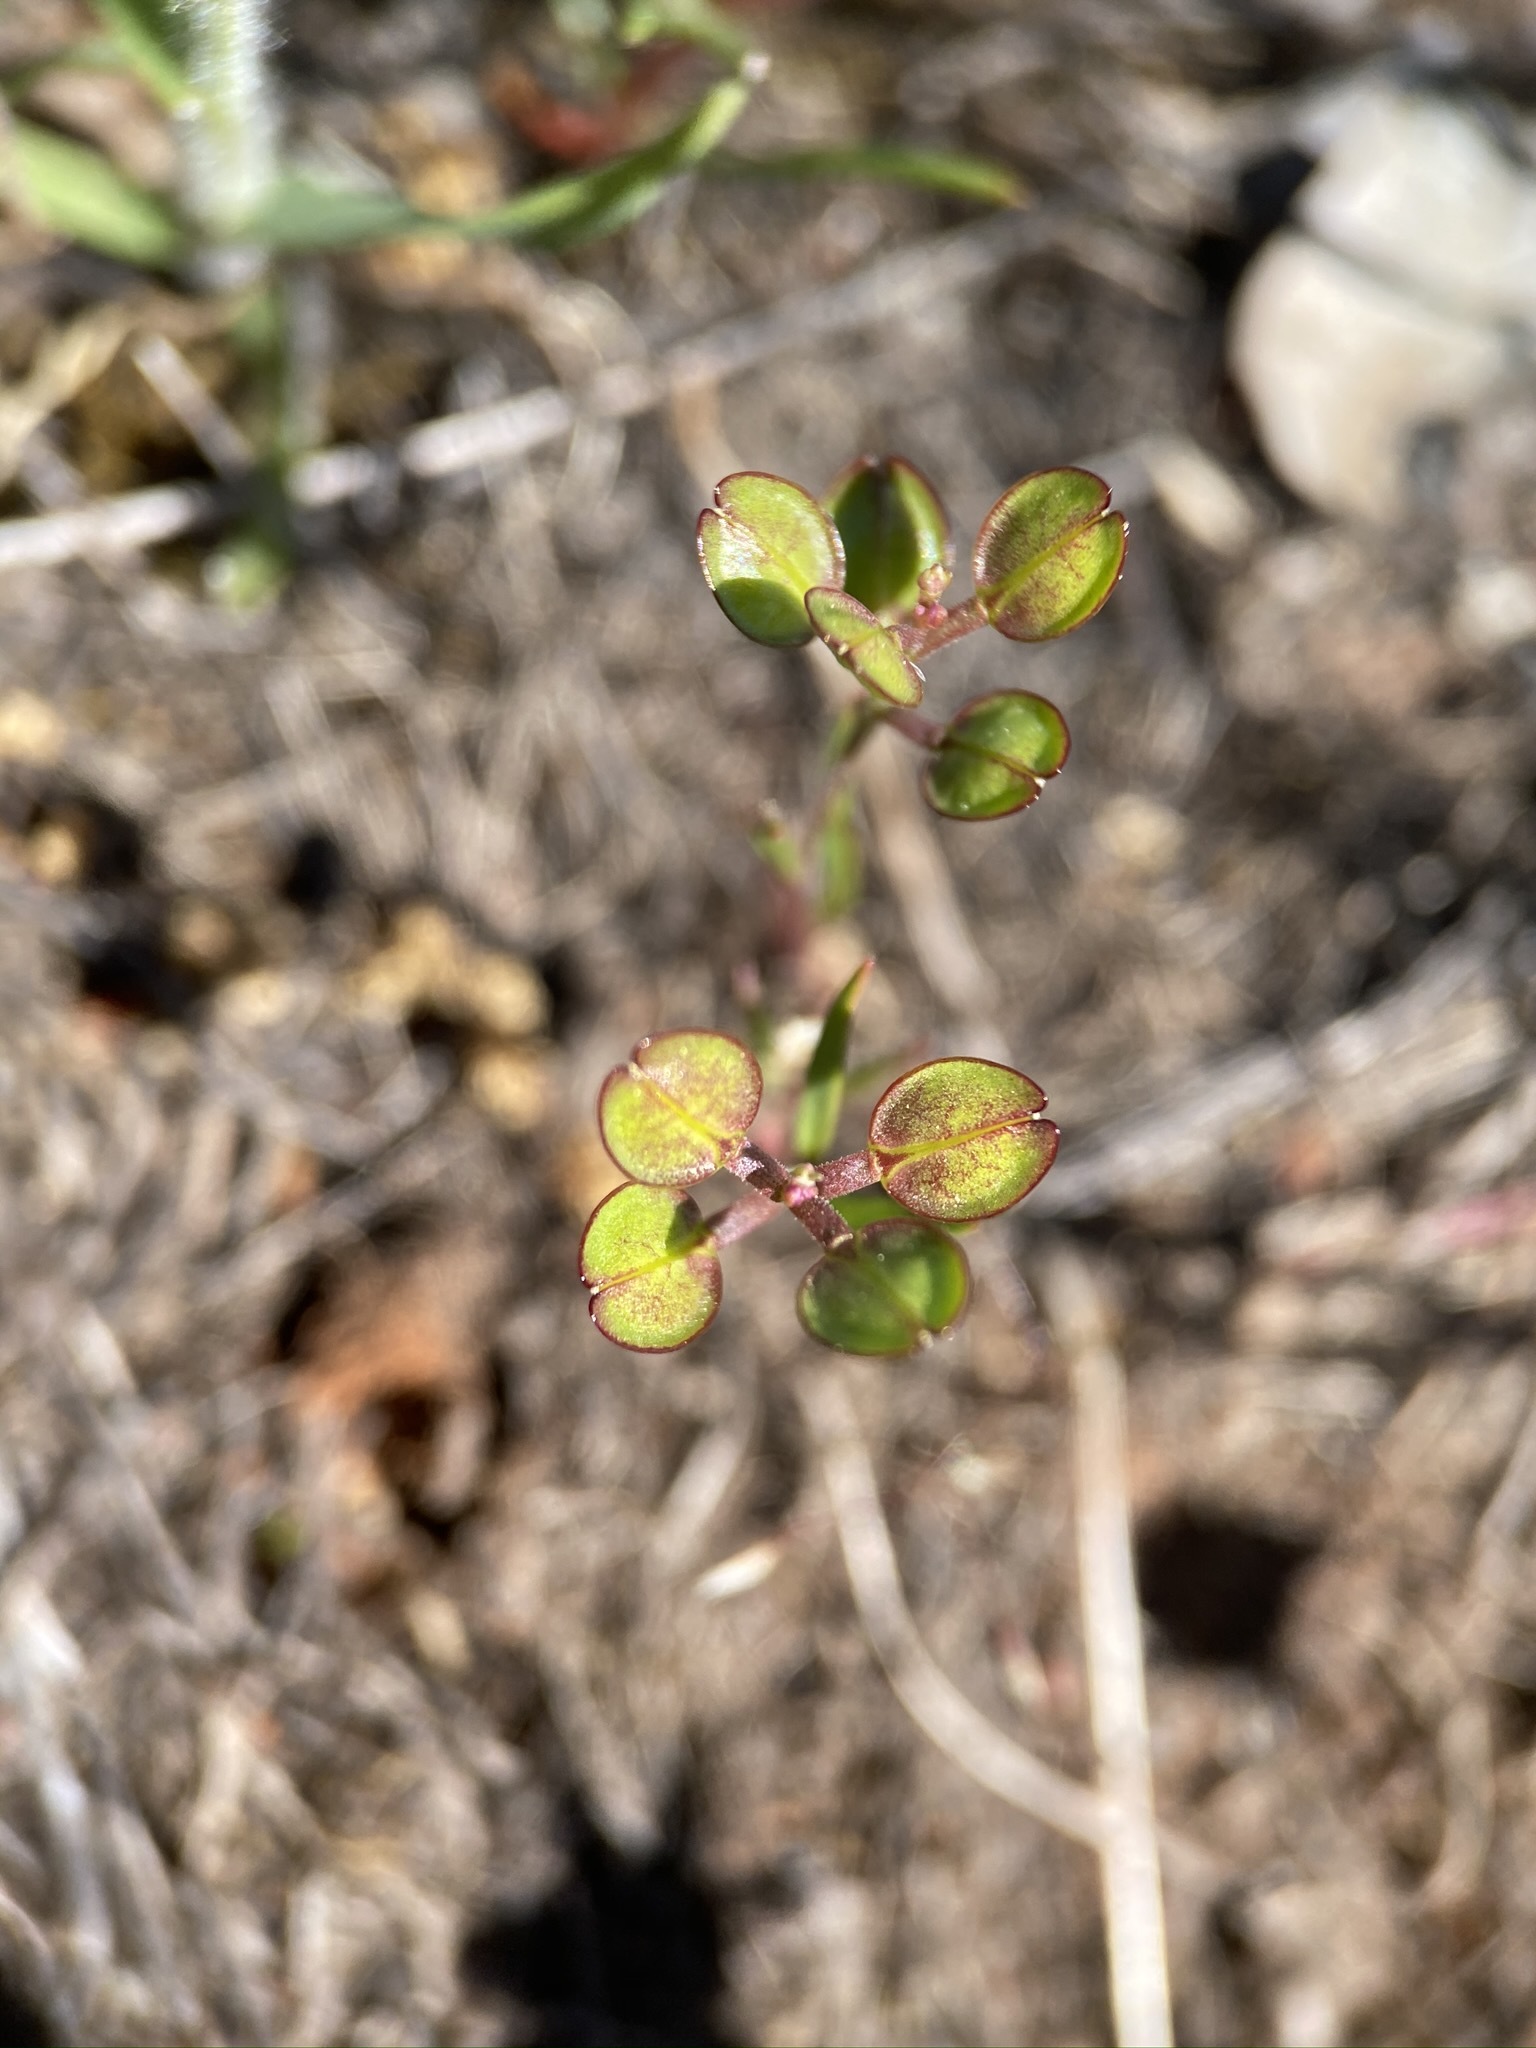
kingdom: Plantae
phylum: Tracheophyta
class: Magnoliopsida
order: Brassicales
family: Brassicaceae
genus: Lepidium
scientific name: Lepidium nitidum
